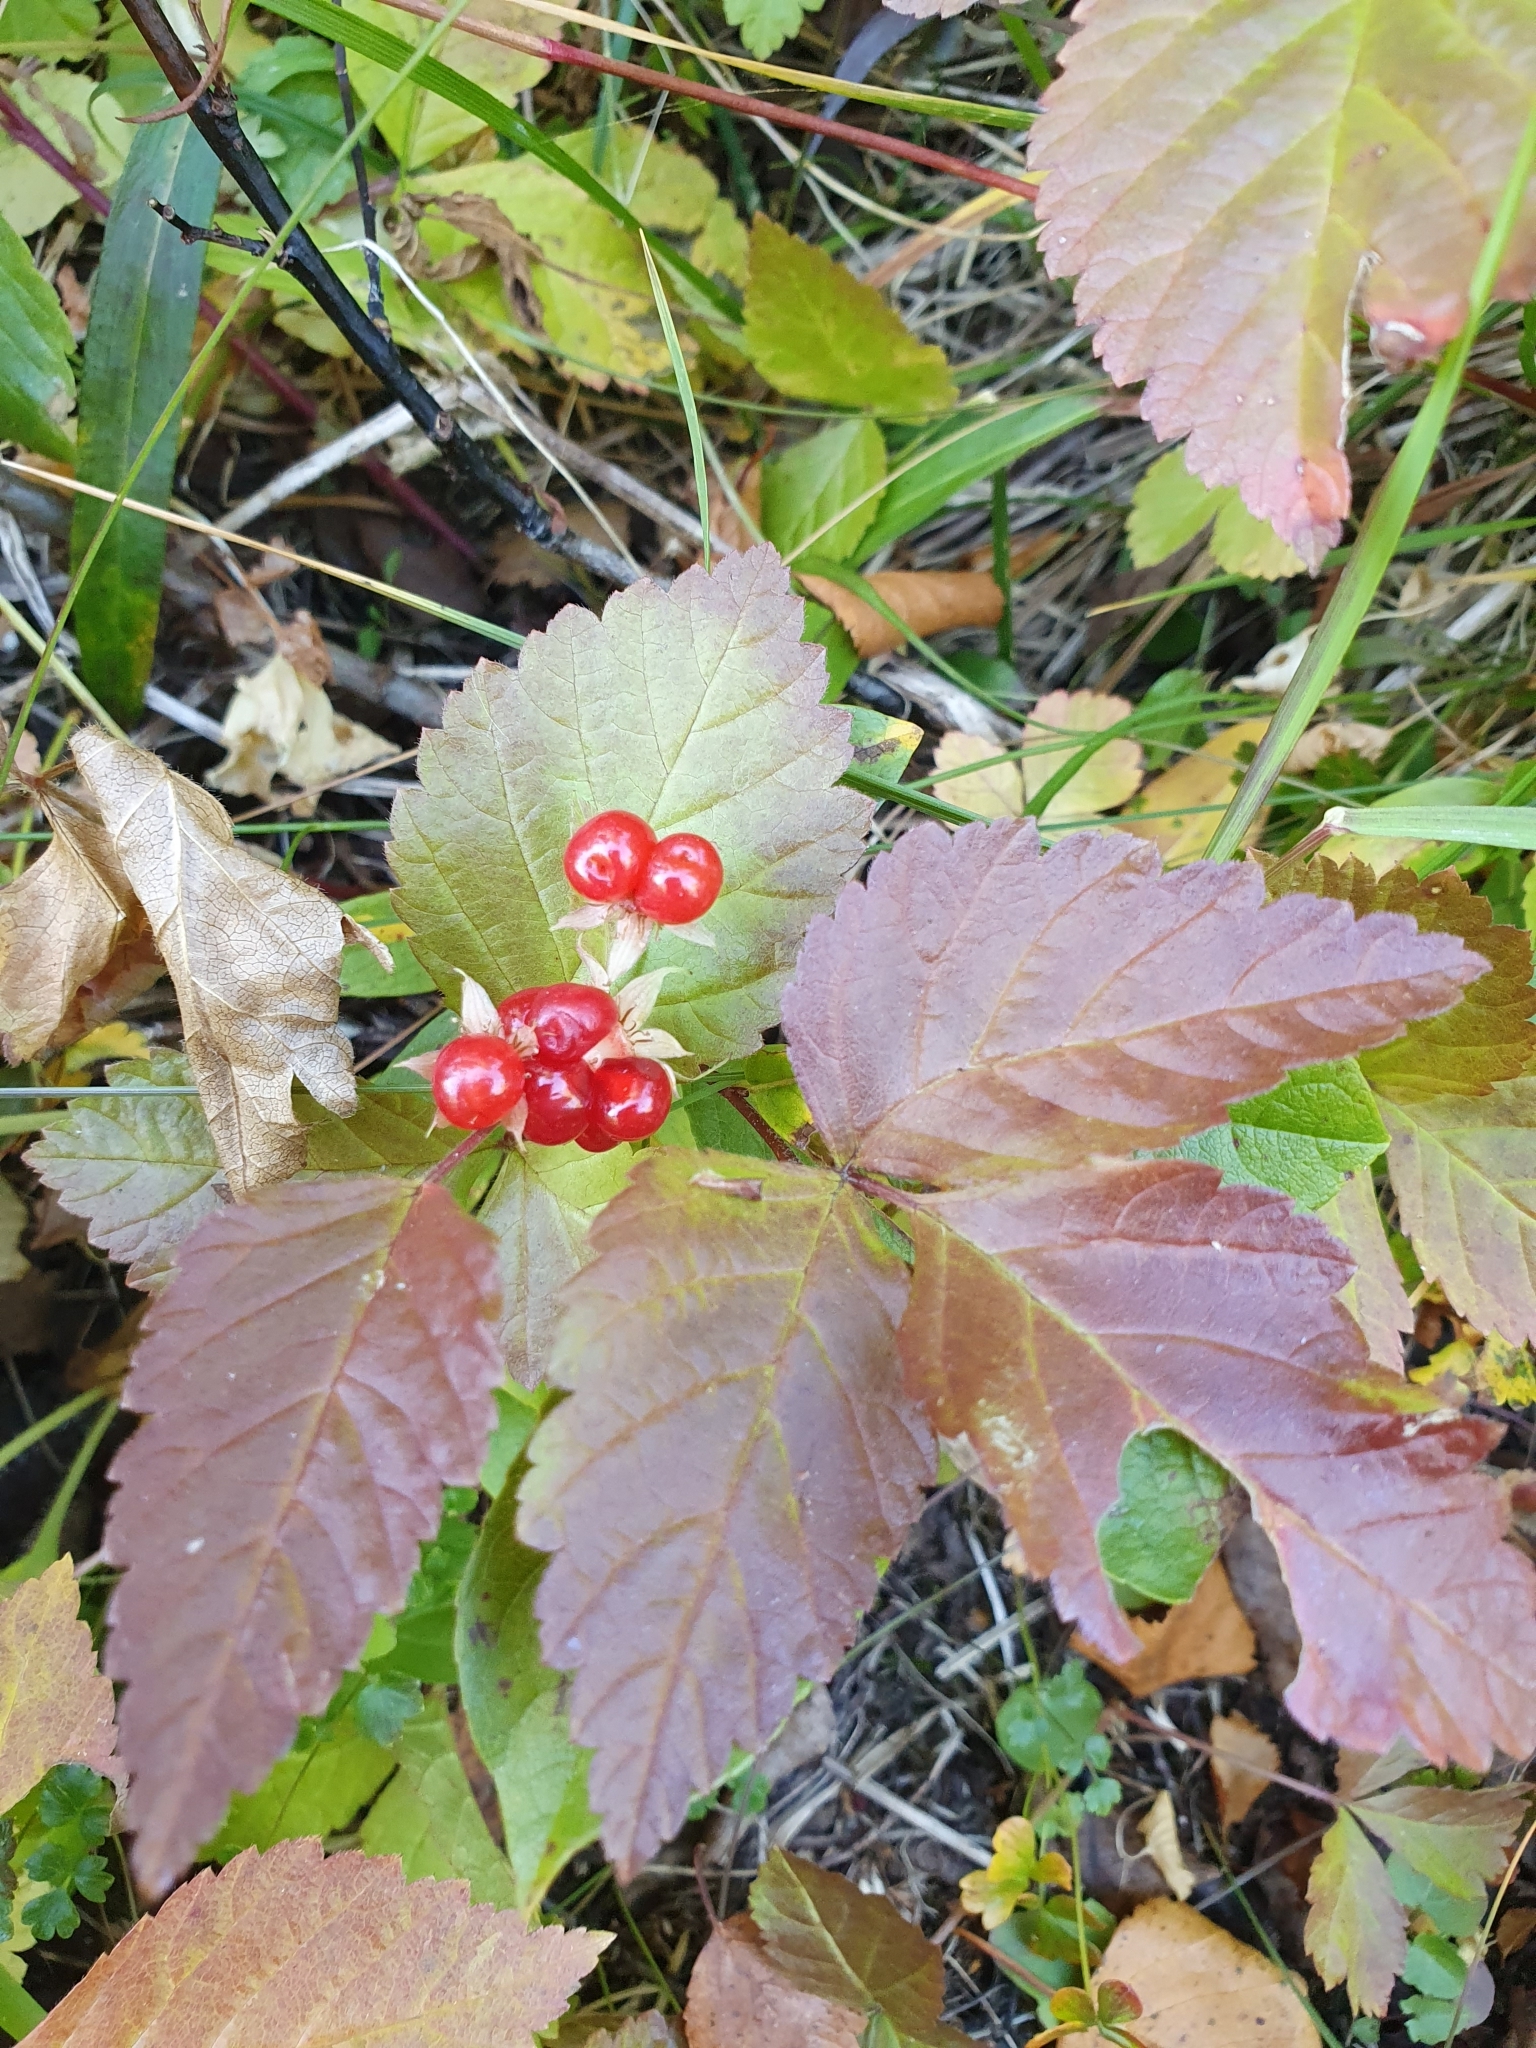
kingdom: Plantae
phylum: Tracheophyta
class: Magnoliopsida
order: Rosales
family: Rosaceae
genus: Rubus
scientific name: Rubus saxatilis
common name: Stone bramble
